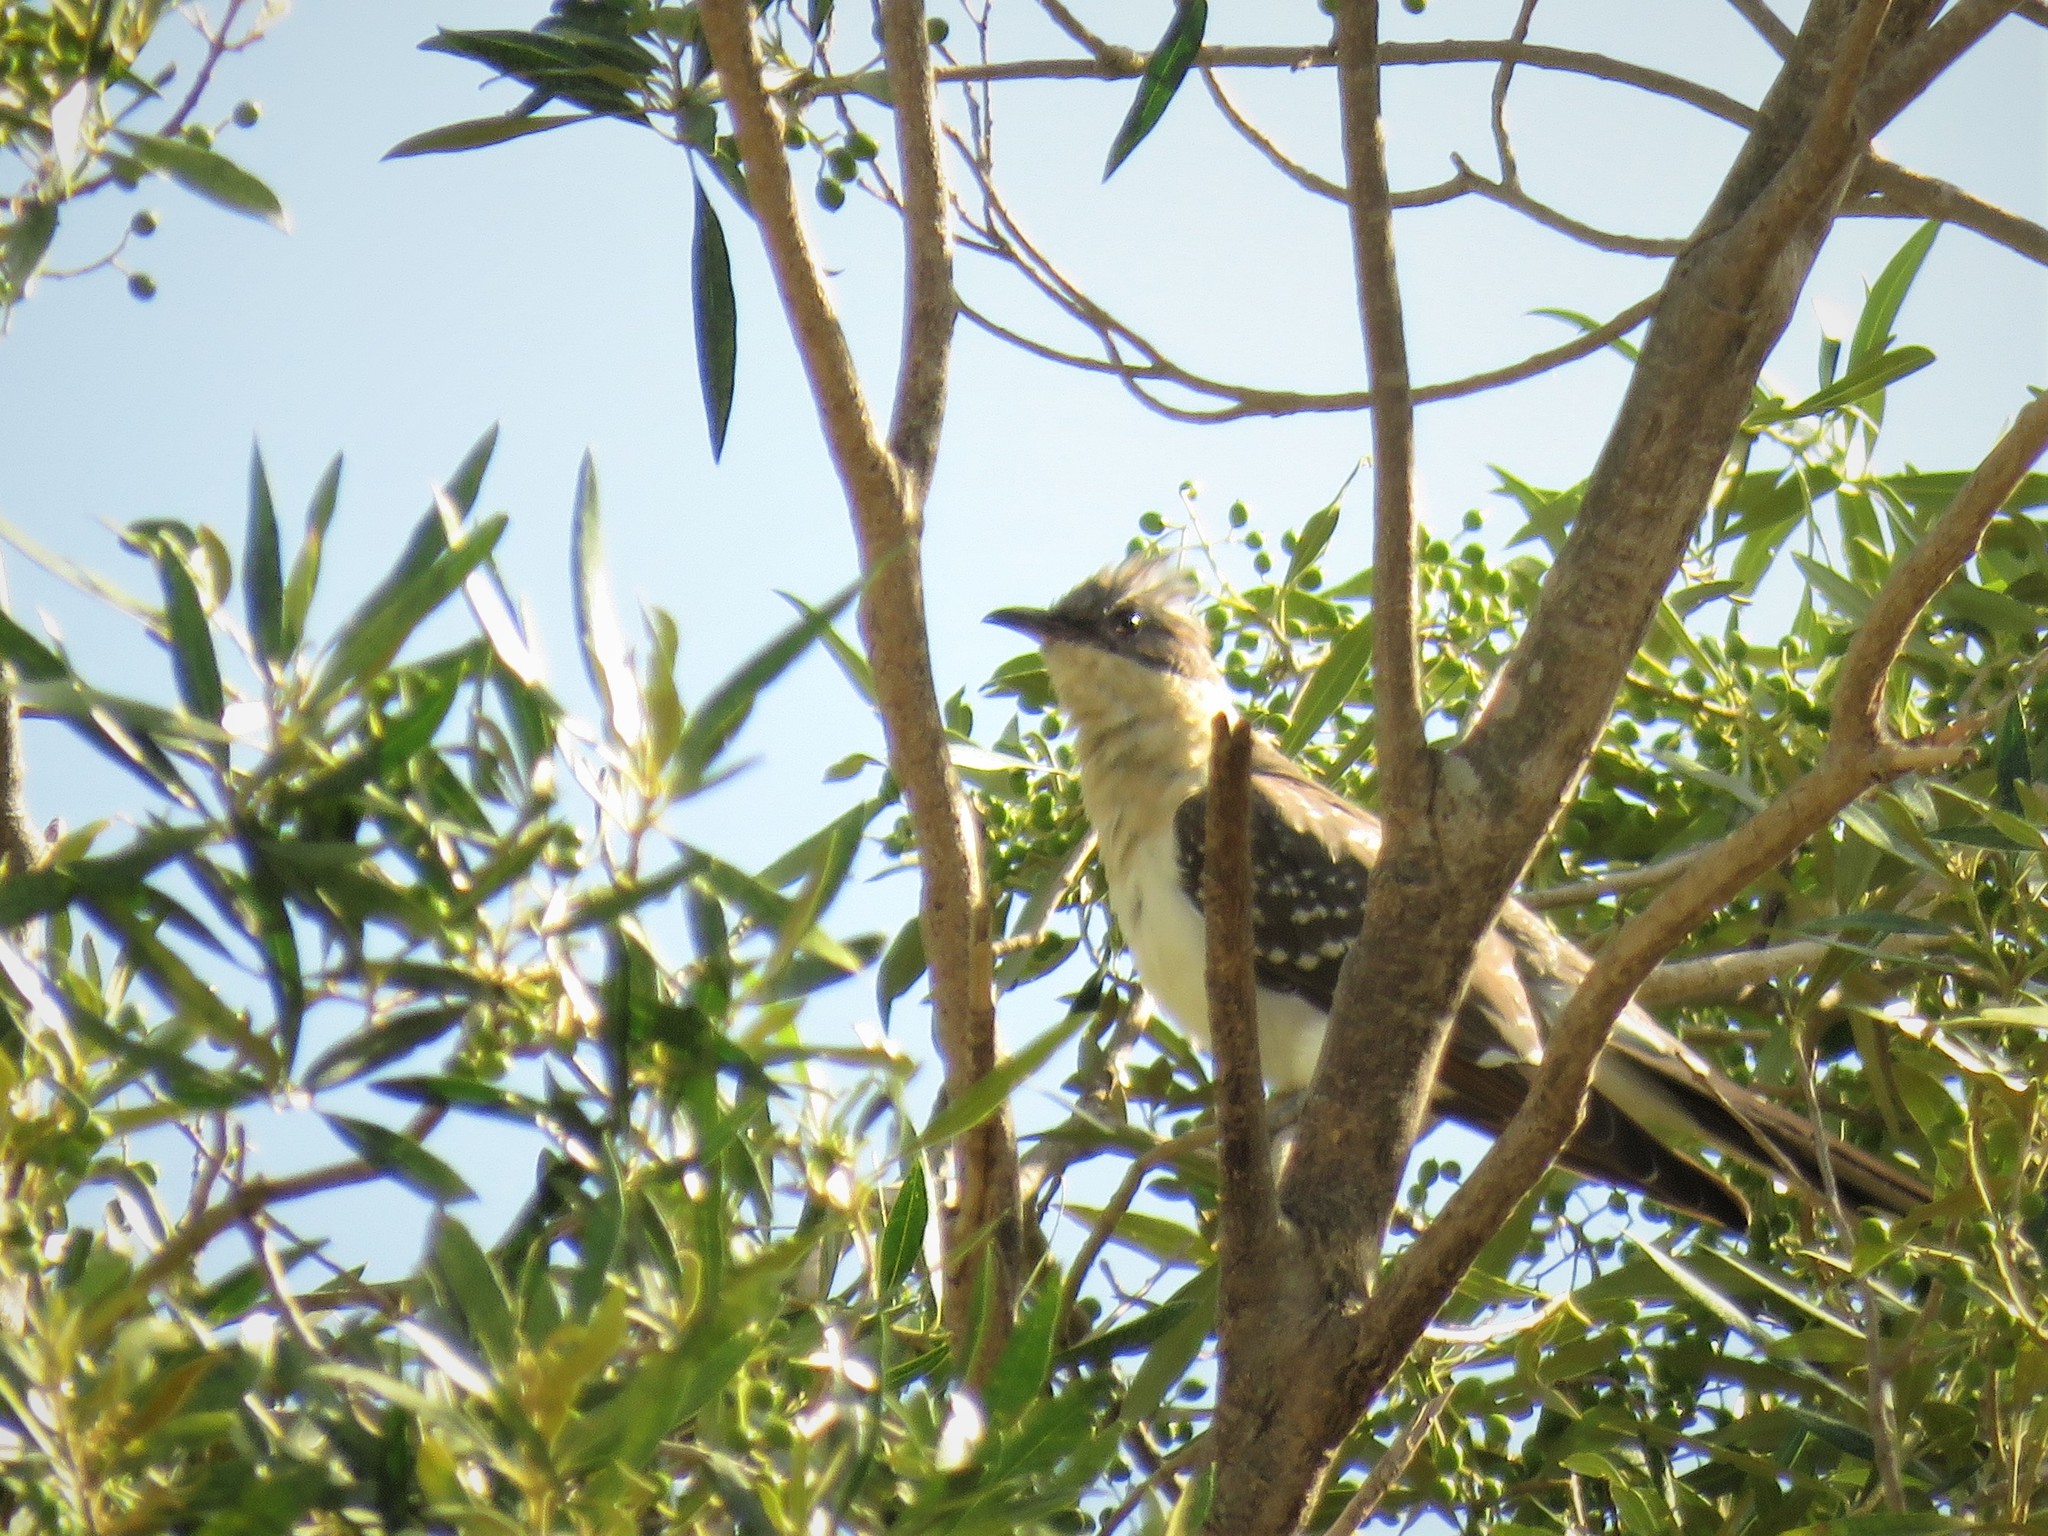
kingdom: Animalia
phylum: Chordata
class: Aves
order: Cuculiformes
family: Cuculidae
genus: Clamator
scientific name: Clamator glandarius
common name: Great spotted cuckoo
